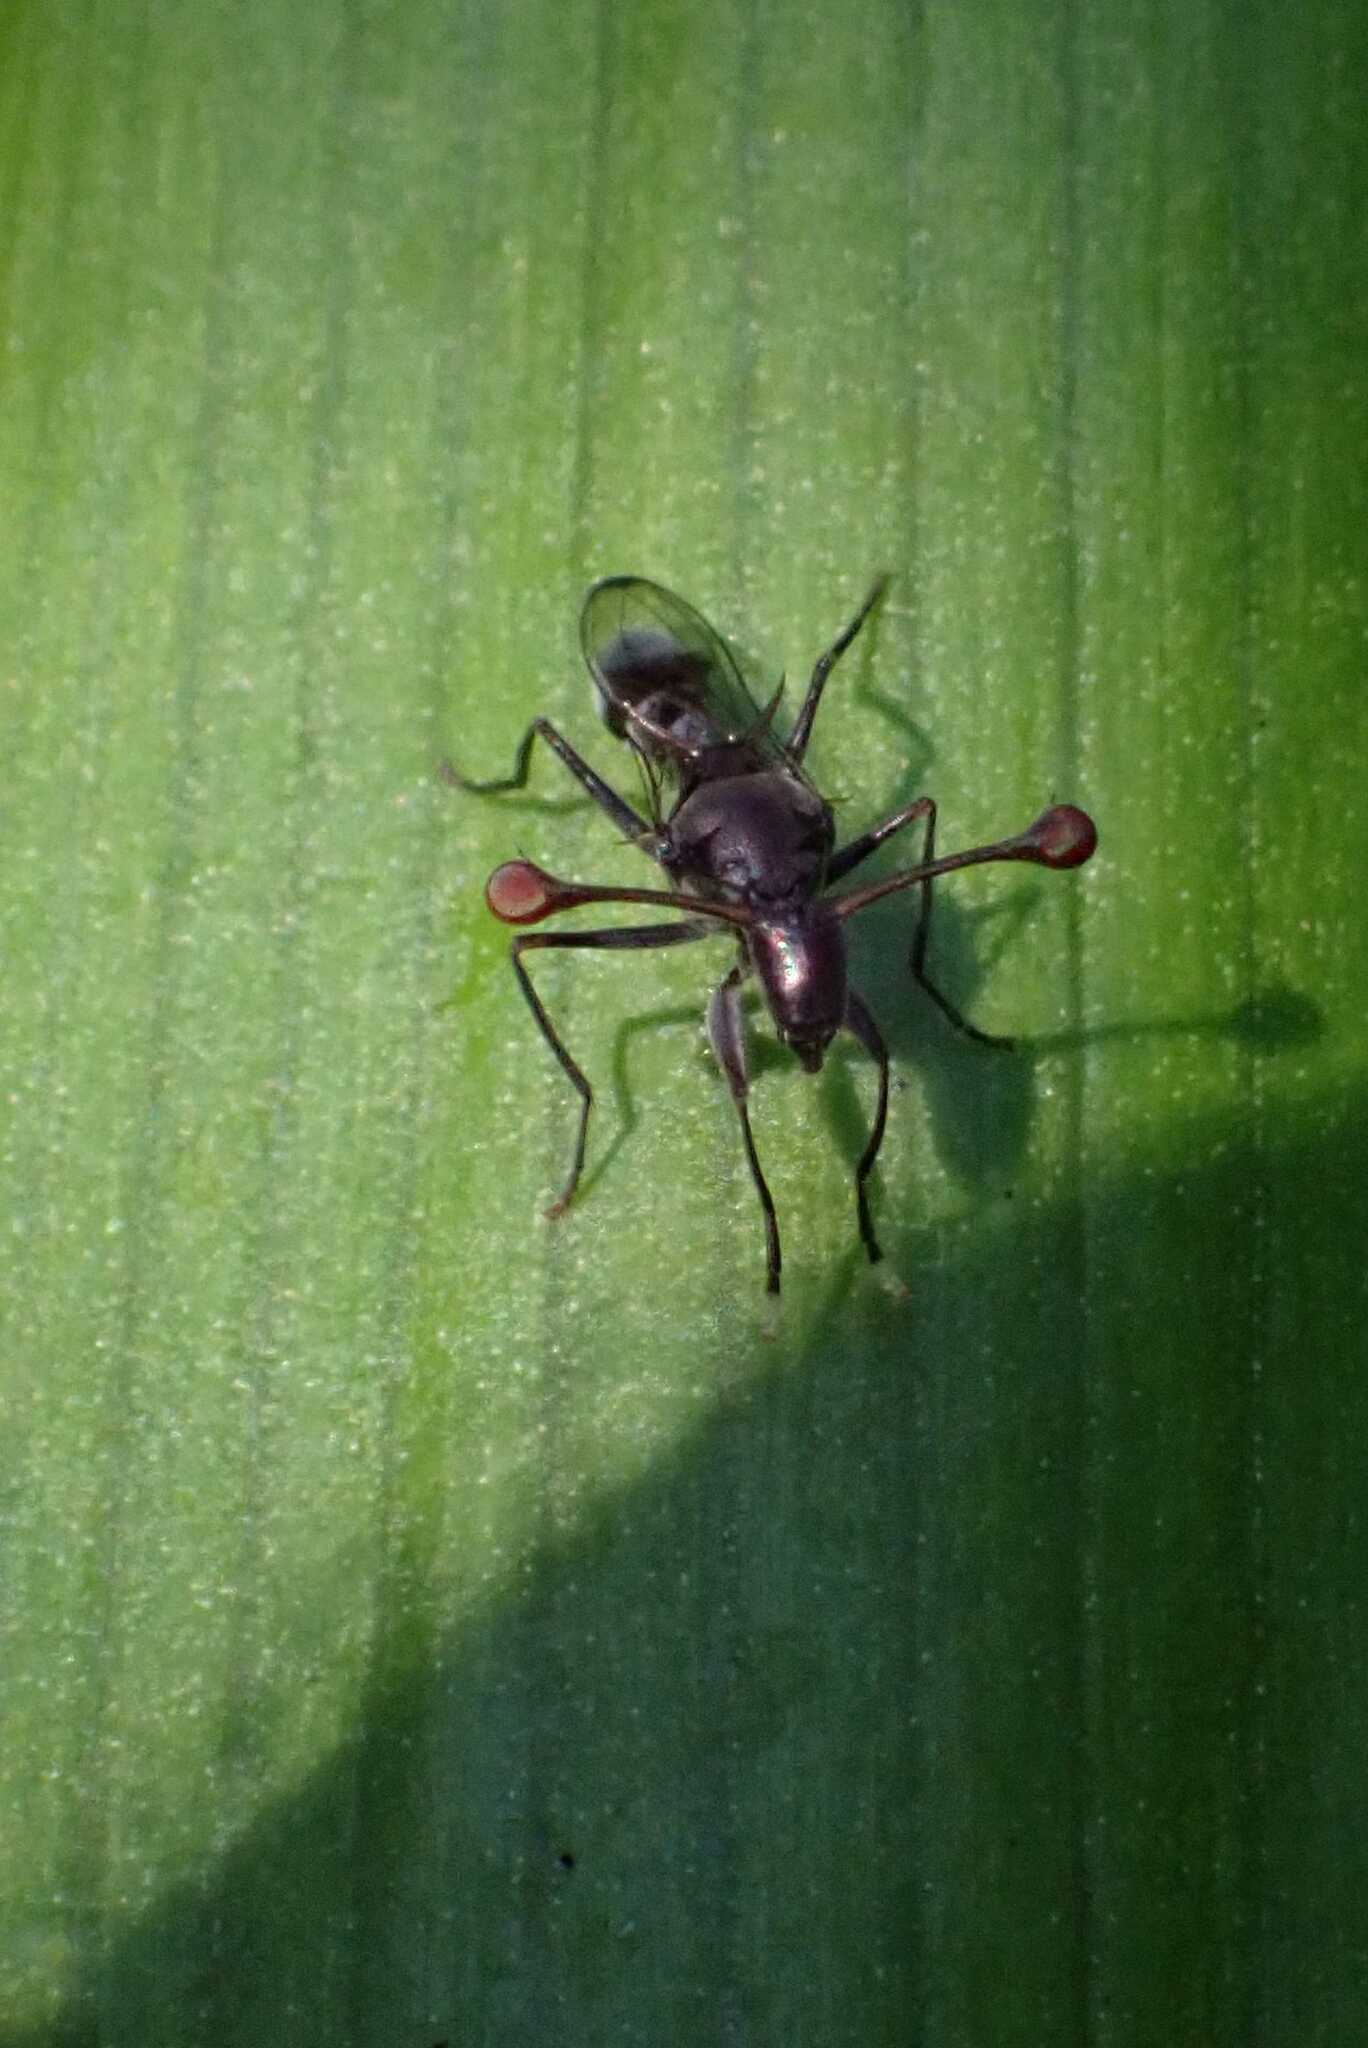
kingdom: Animalia
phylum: Arthropoda
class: Insecta
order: Diptera
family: Diopsidae
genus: Chaetodiopsis
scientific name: Chaetodiopsis
